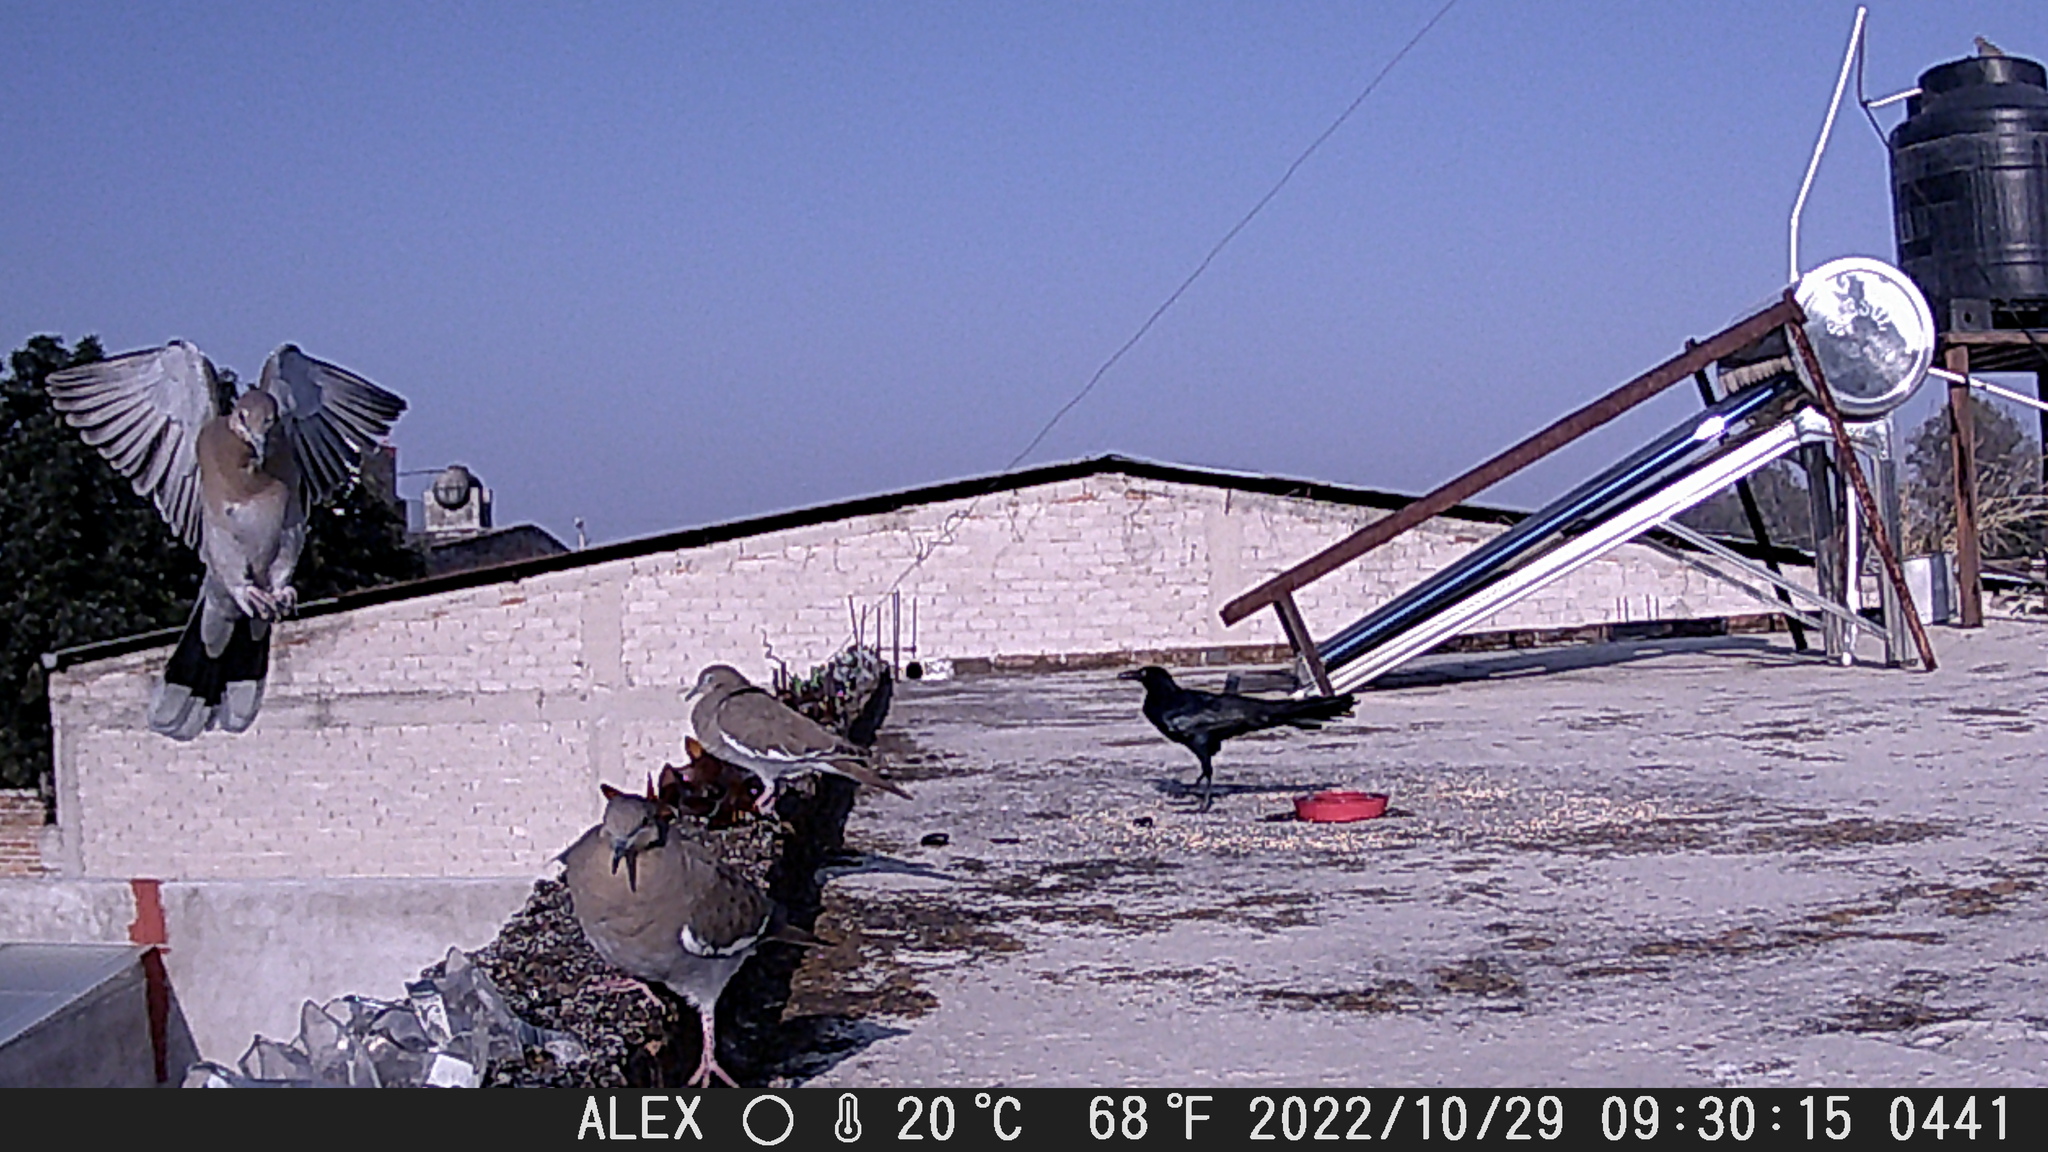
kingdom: Animalia
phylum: Chordata
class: Aves
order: Columbiformes
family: Columbidae
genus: Zenaida
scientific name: Zenaida asiatica
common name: White-winged dove
